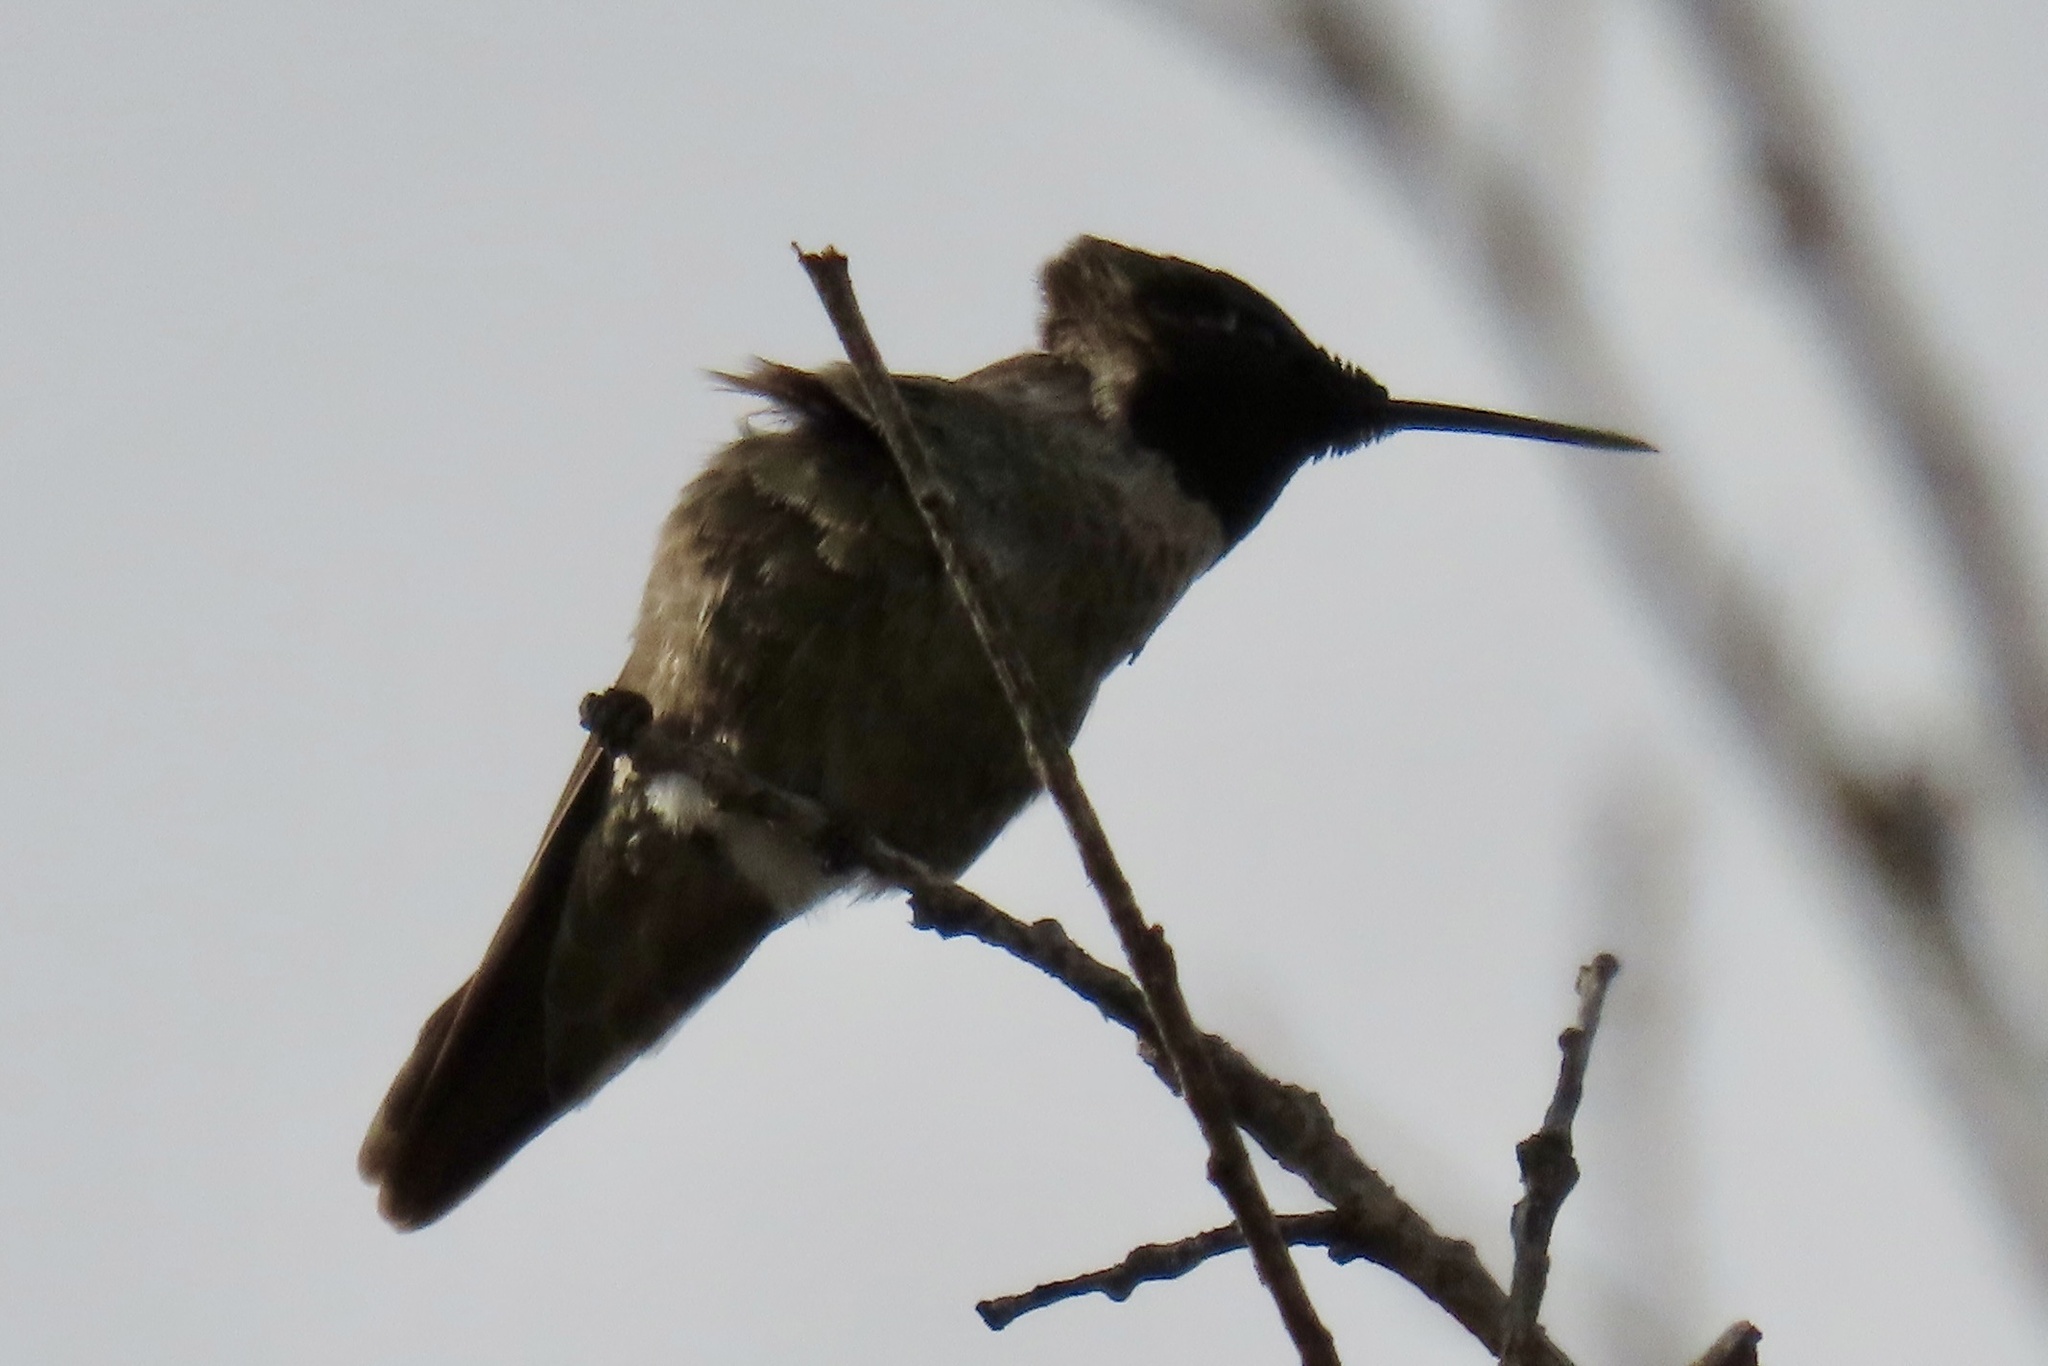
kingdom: Animalia
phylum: Chordata
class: Aves
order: Apodiformes
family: Trochilidae
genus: Calypte
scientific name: Calypte anna
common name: Anna's hummingbird
